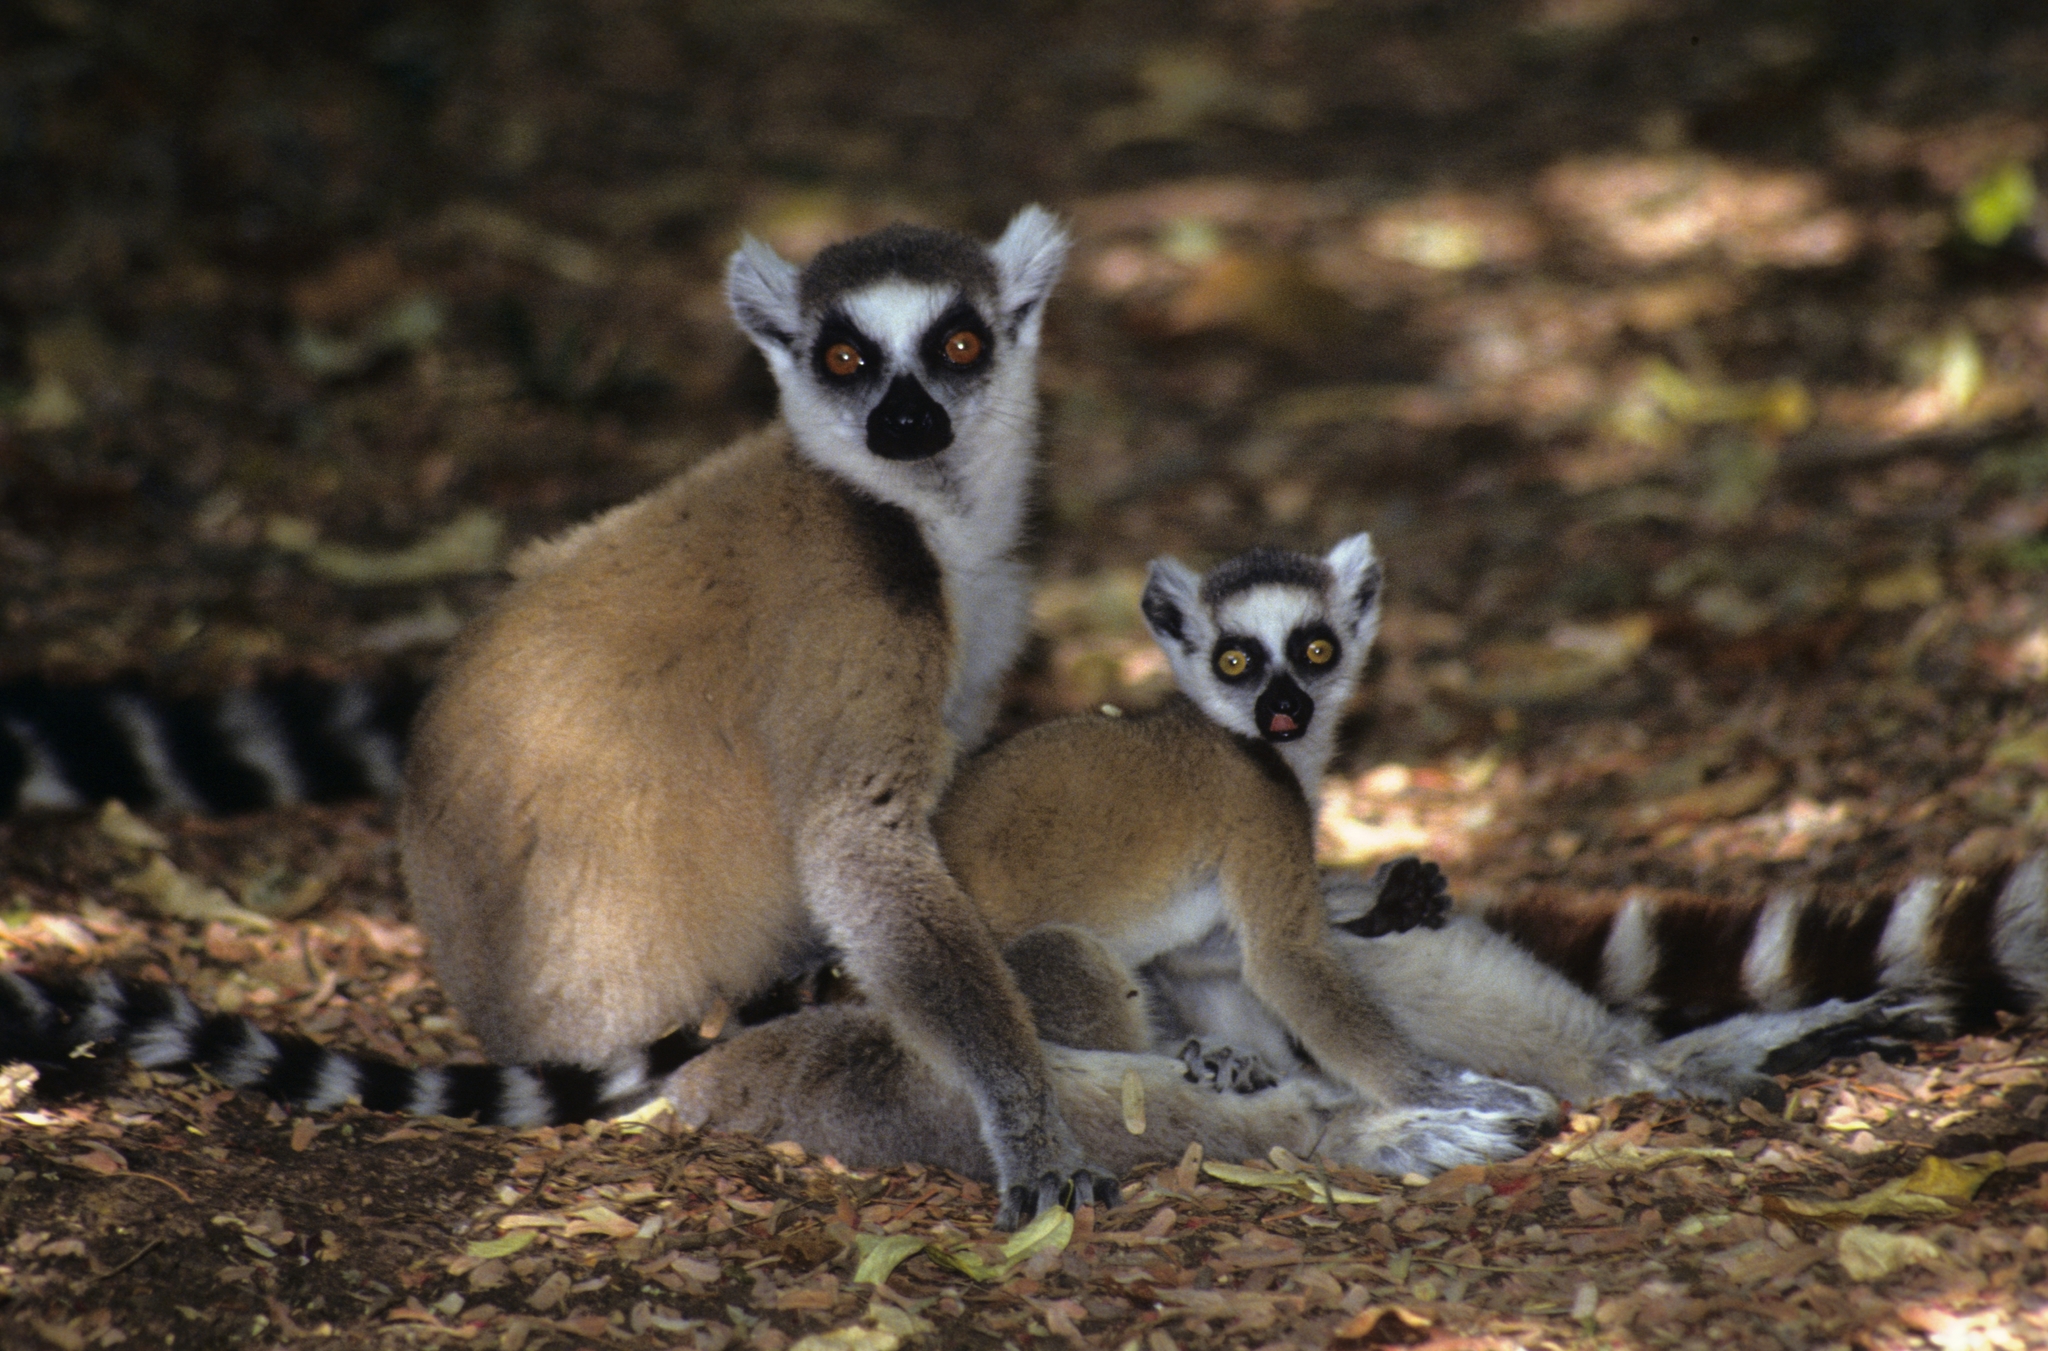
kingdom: Animalia
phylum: Chordata
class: Mammalia
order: Primates
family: Lemuridae
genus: Lemur
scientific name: Lemur catta
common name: Ring-tailed lemur
